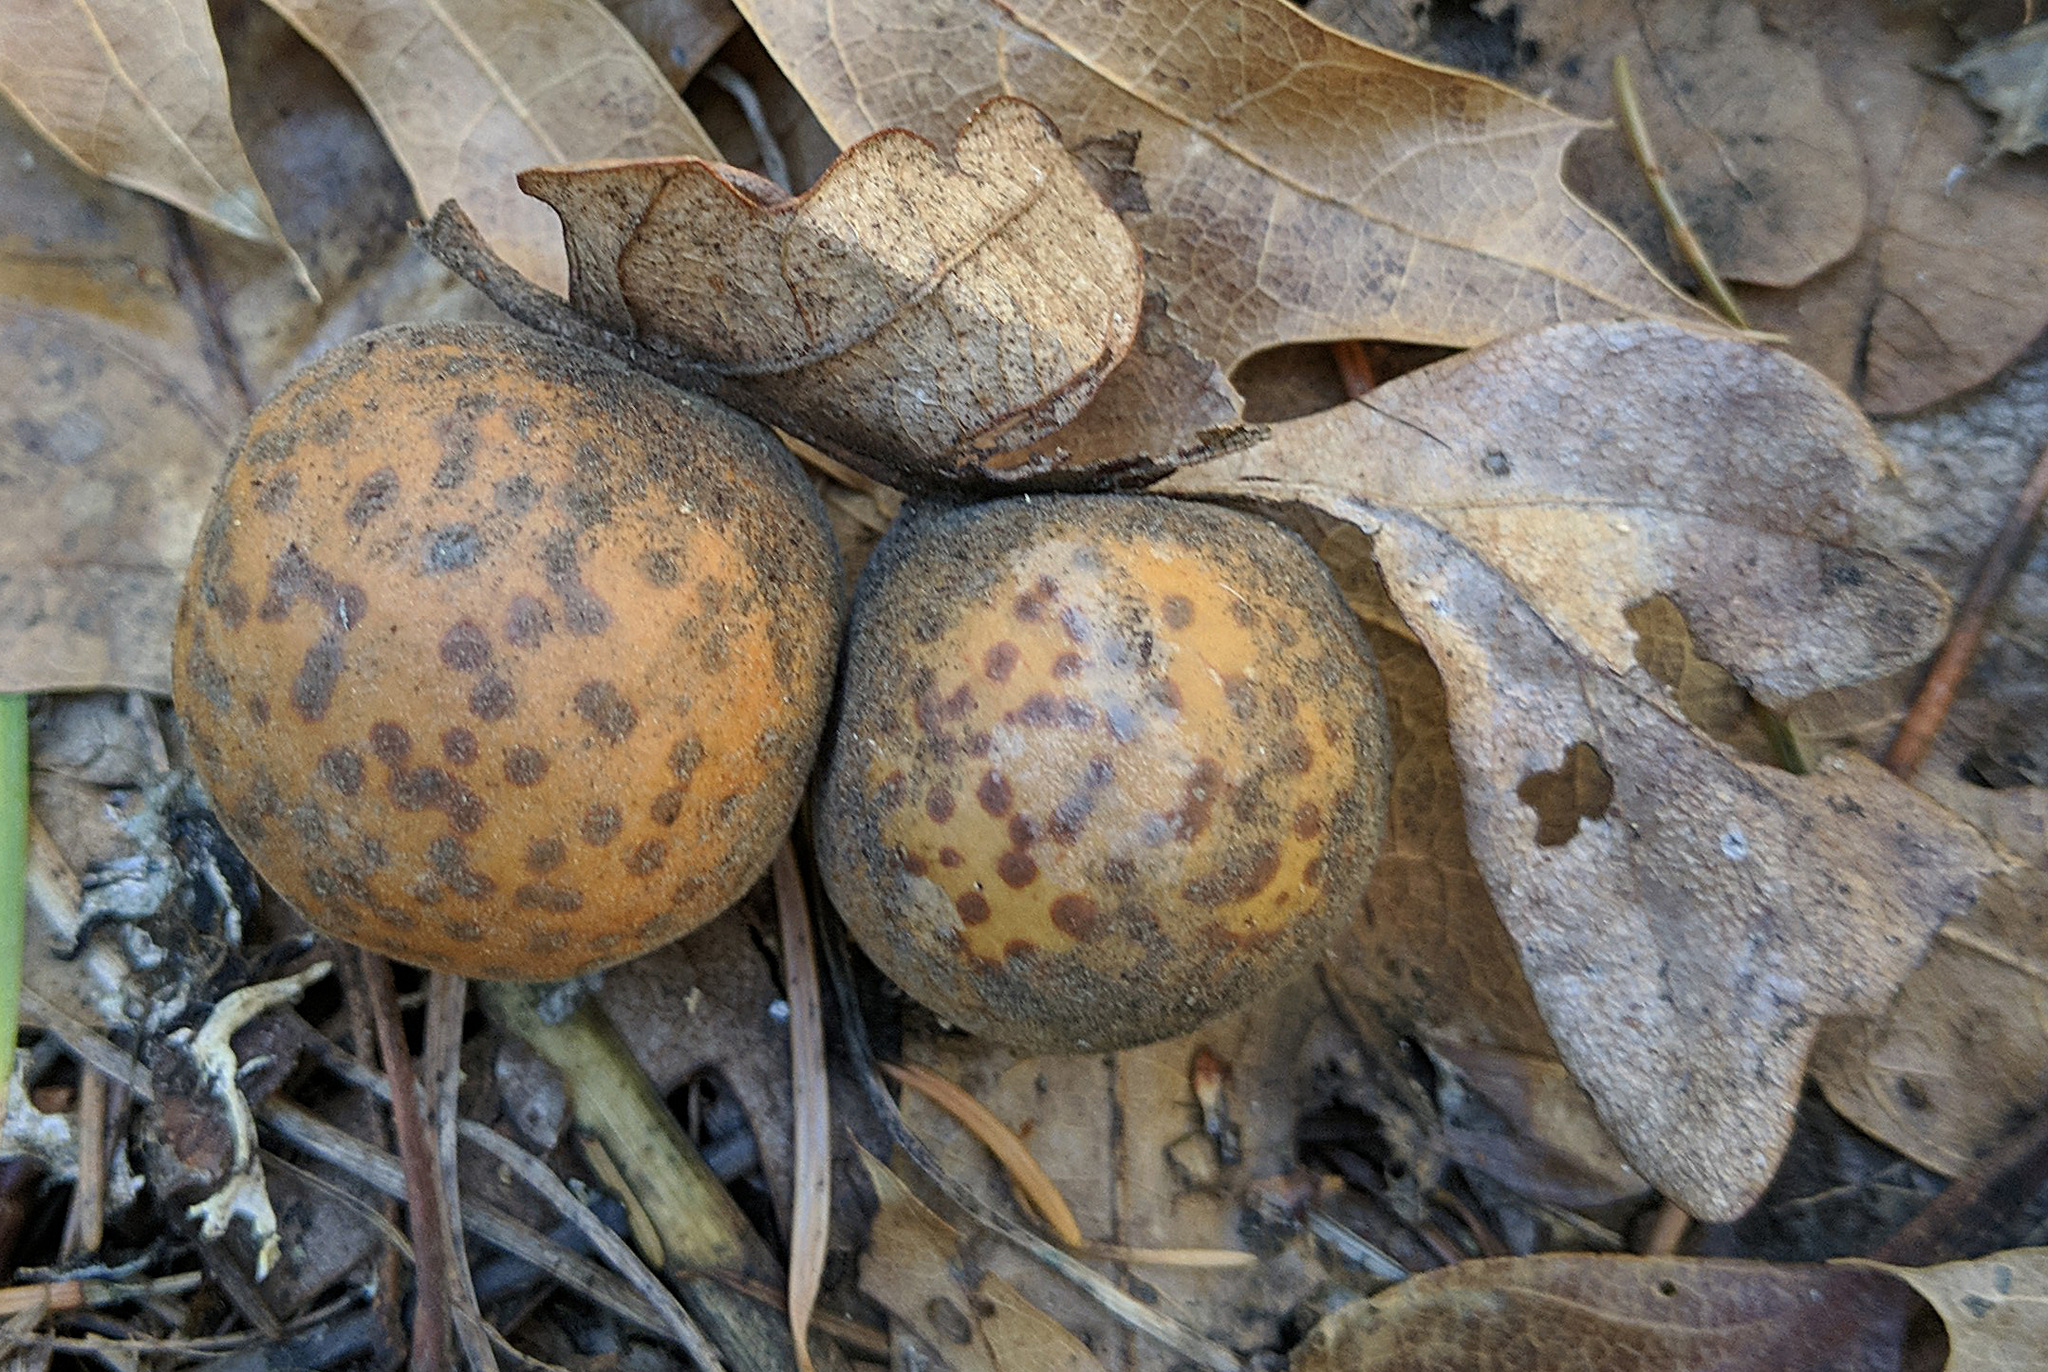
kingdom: Animalia
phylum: Arthropoda
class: Insecta
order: Hymenoptera
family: Cynipidae
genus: Cynips
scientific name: Cynips
